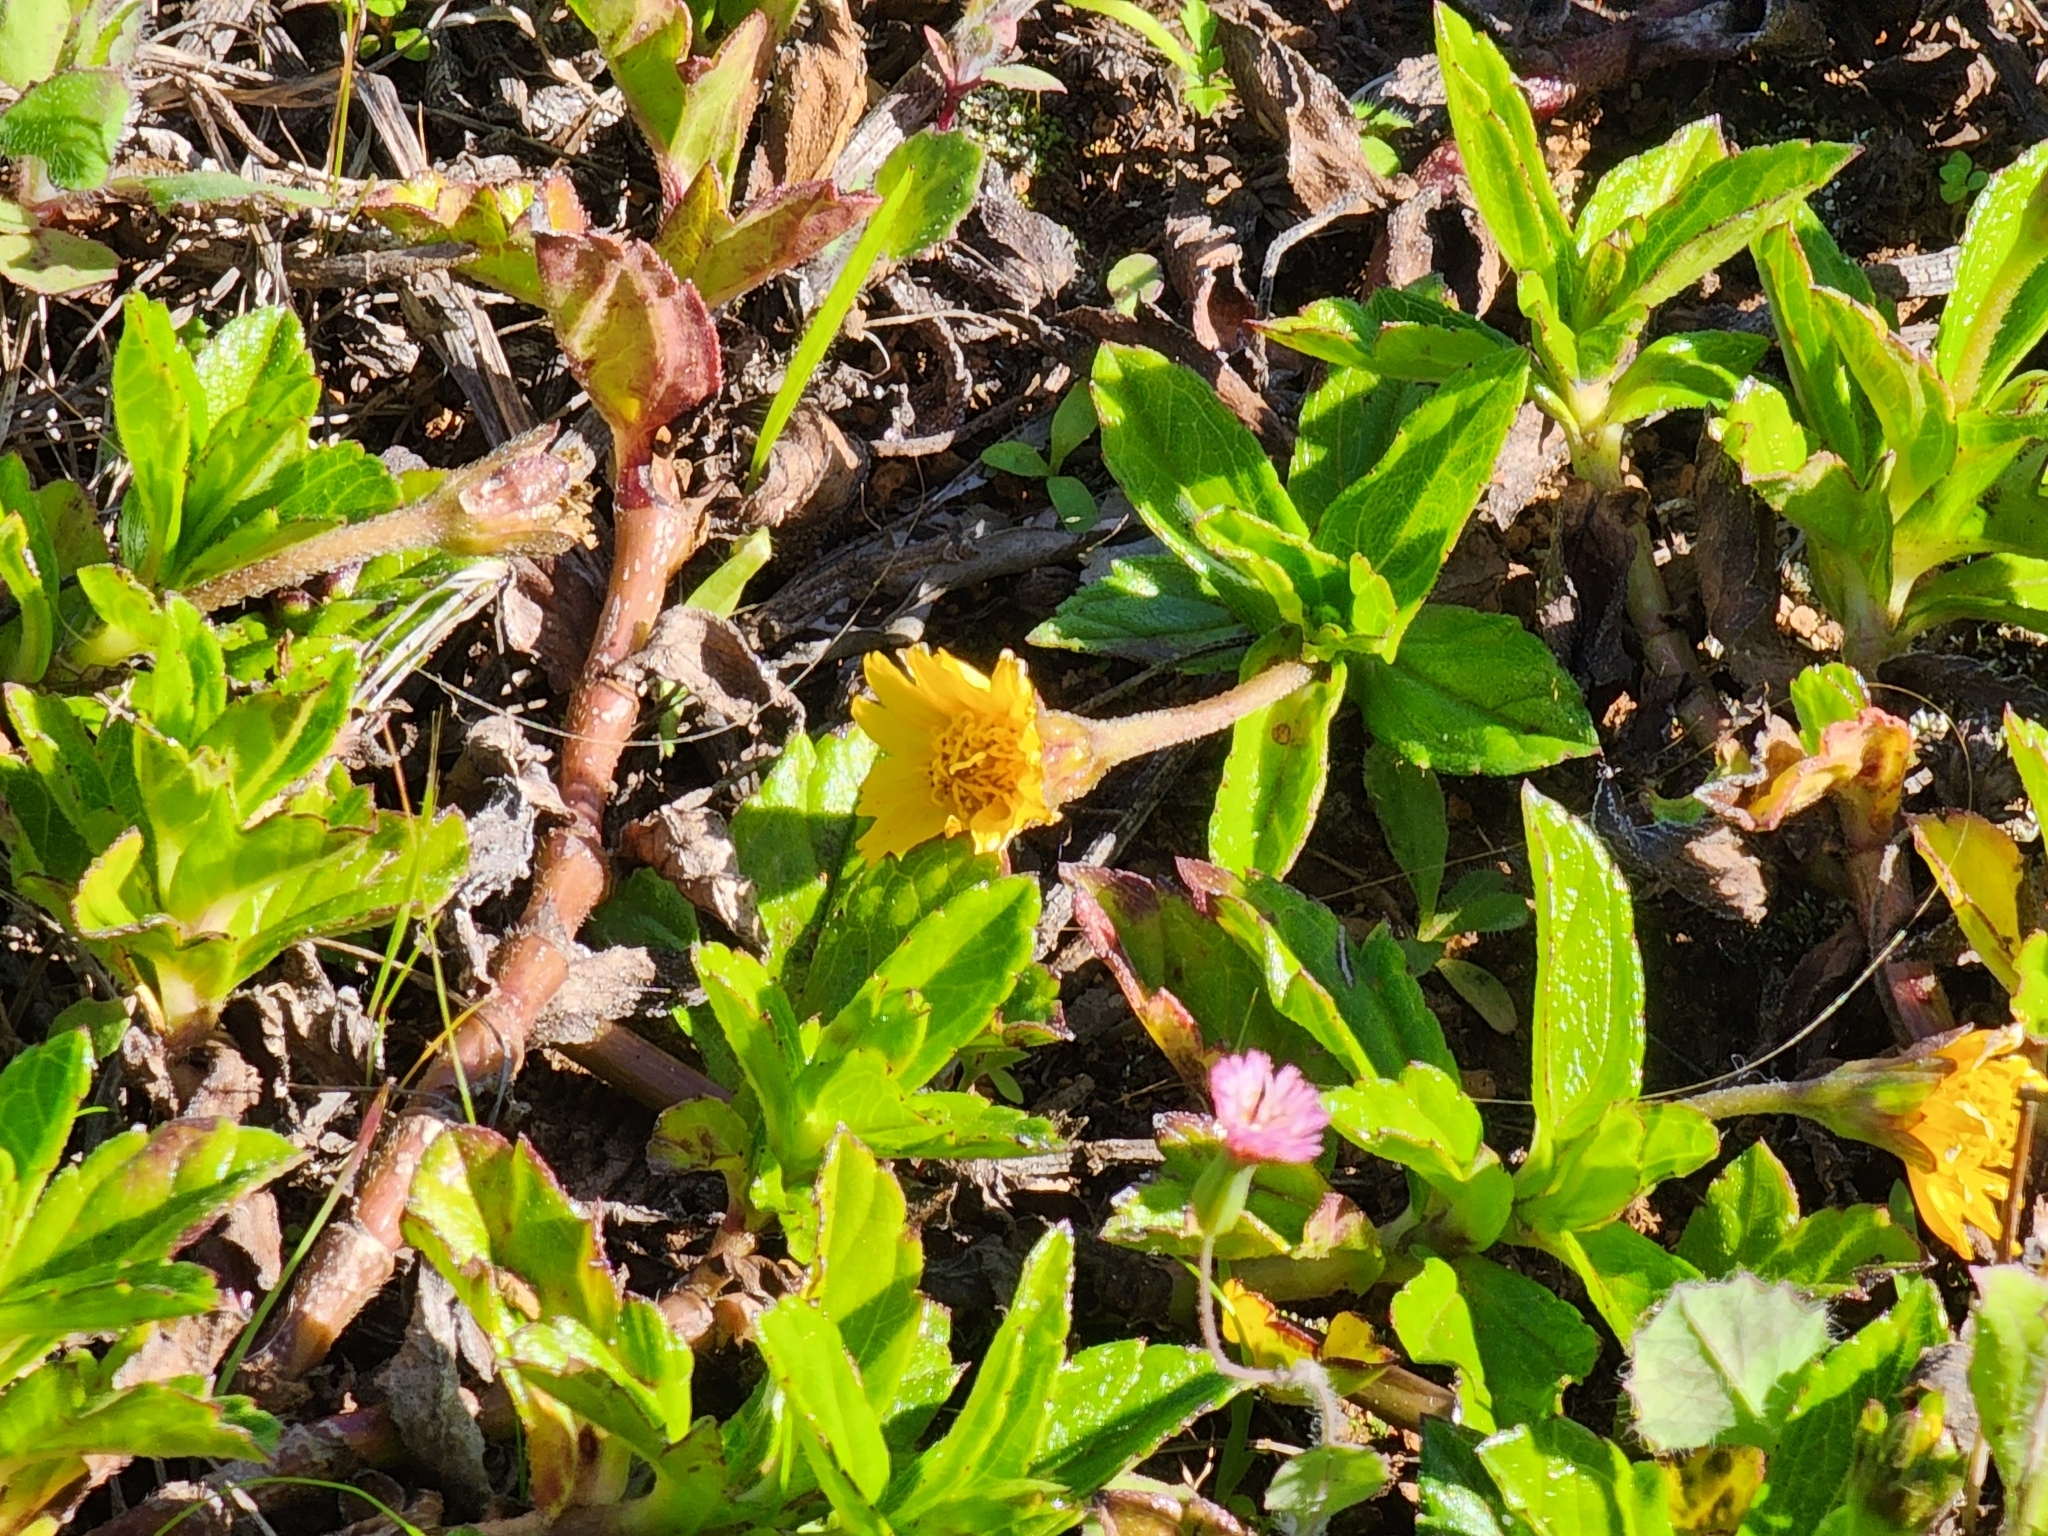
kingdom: Plantae
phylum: Tracheophyta
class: Magnoliopsida
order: Asterales
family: Asteraceae
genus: Sphagneticola
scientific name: Sphagneticola trilobata
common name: Bay biscayne creeping-oxeye
